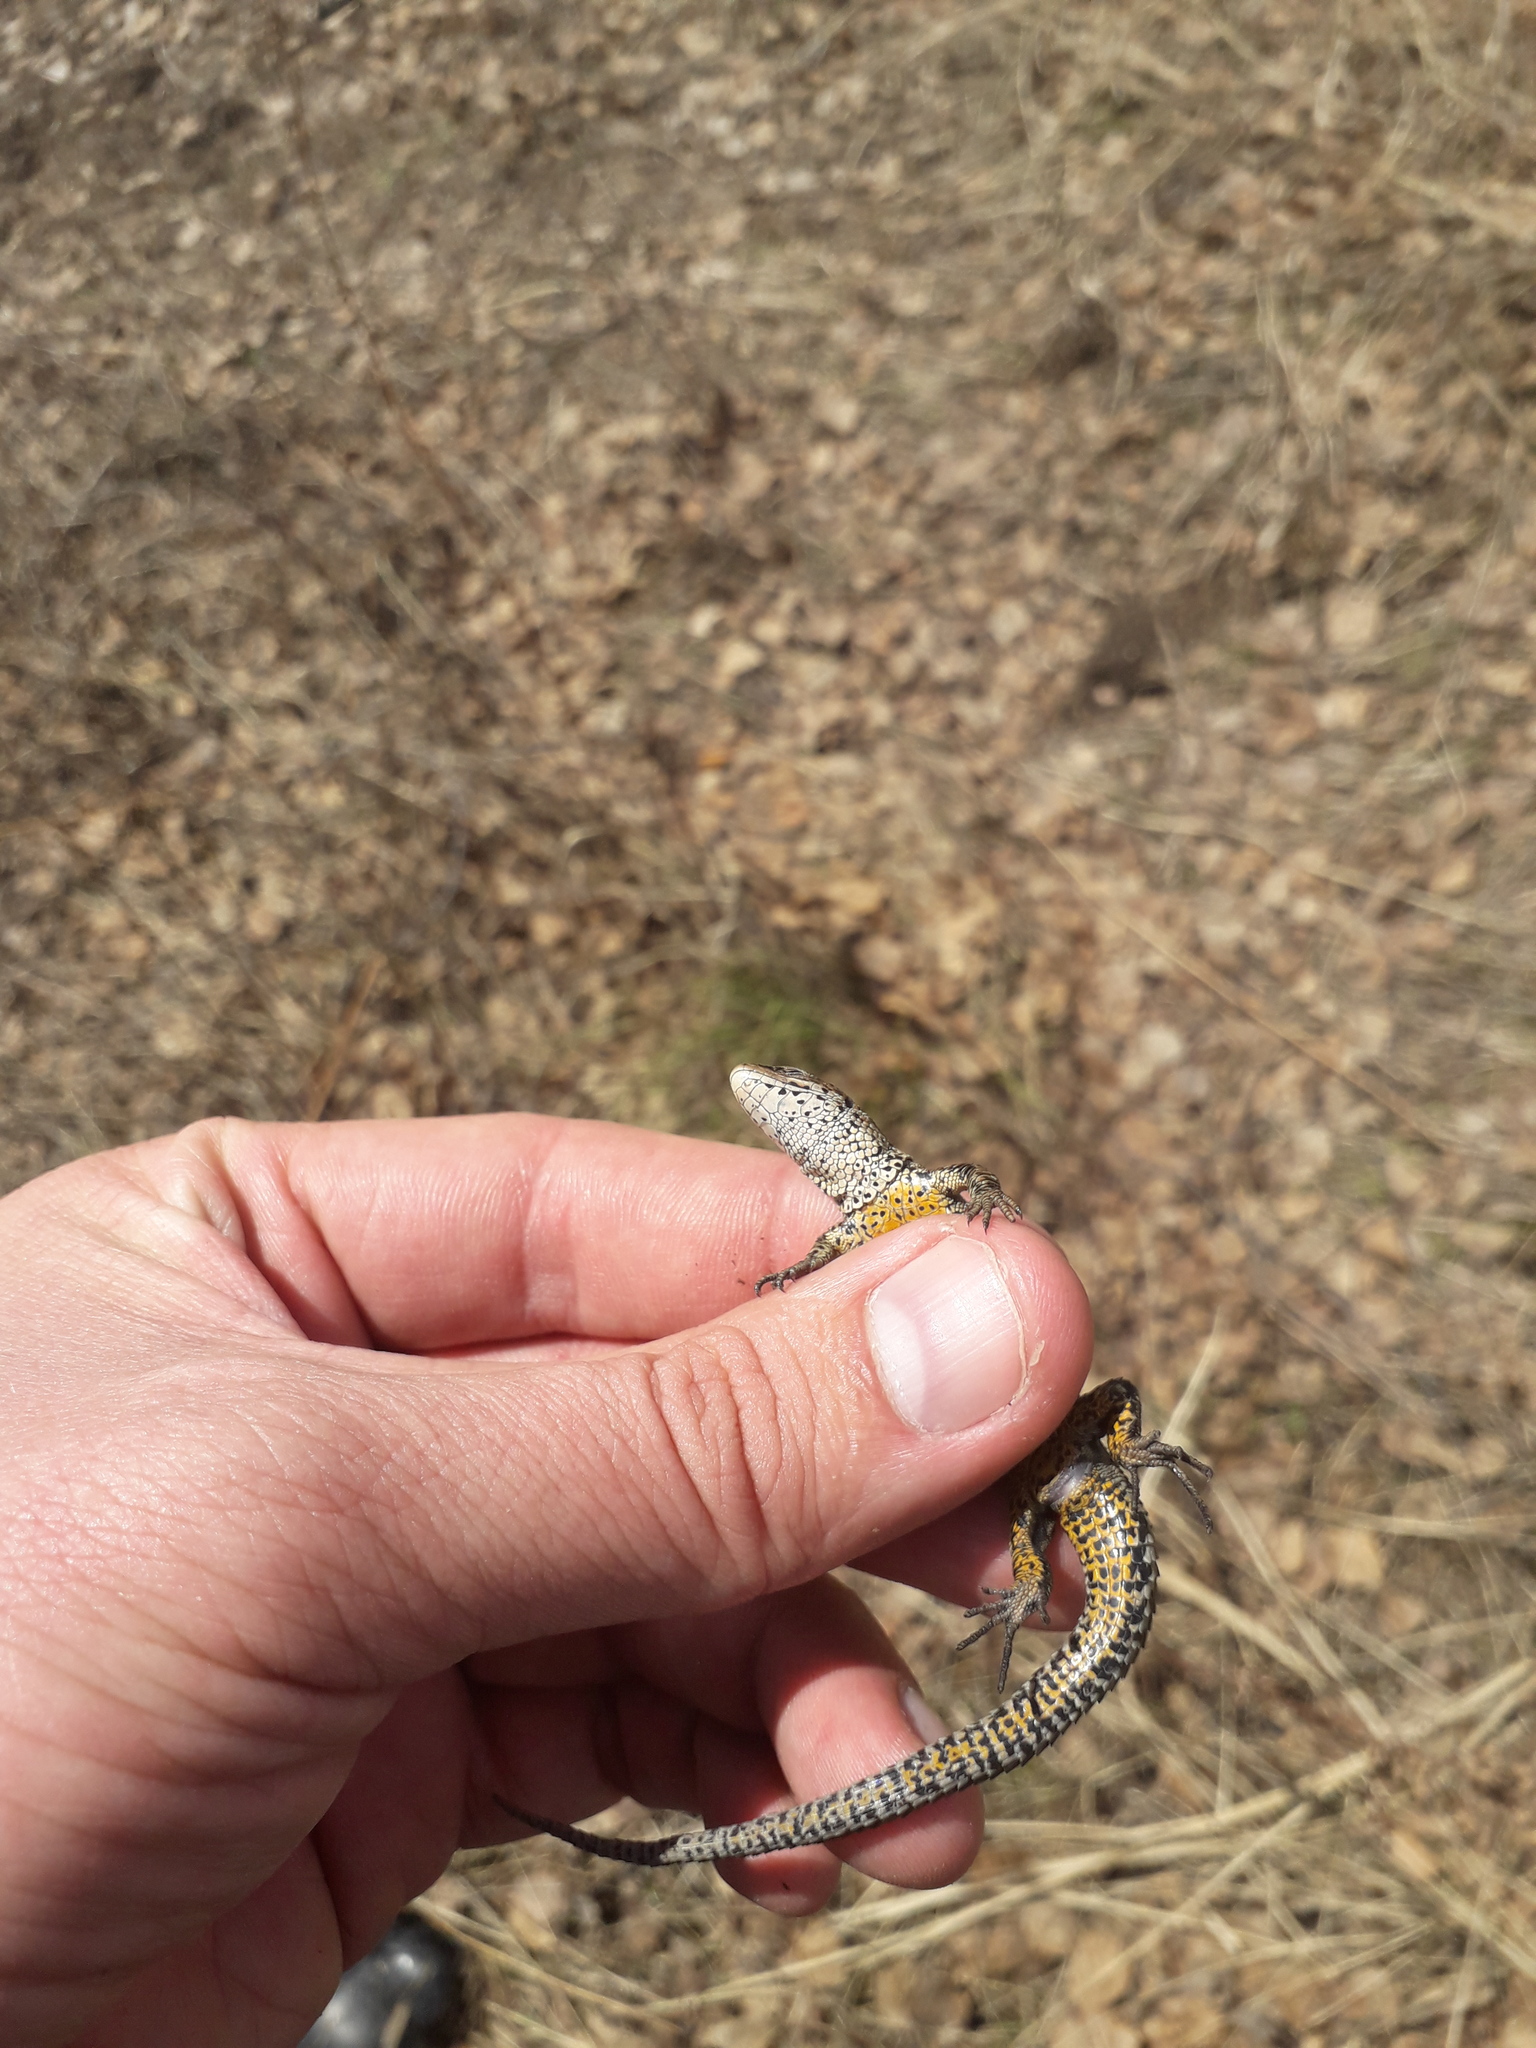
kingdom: Animalia
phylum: Chordata
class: Squamata
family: Lacertidae
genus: Zootoca
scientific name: Zootoca vivipara
